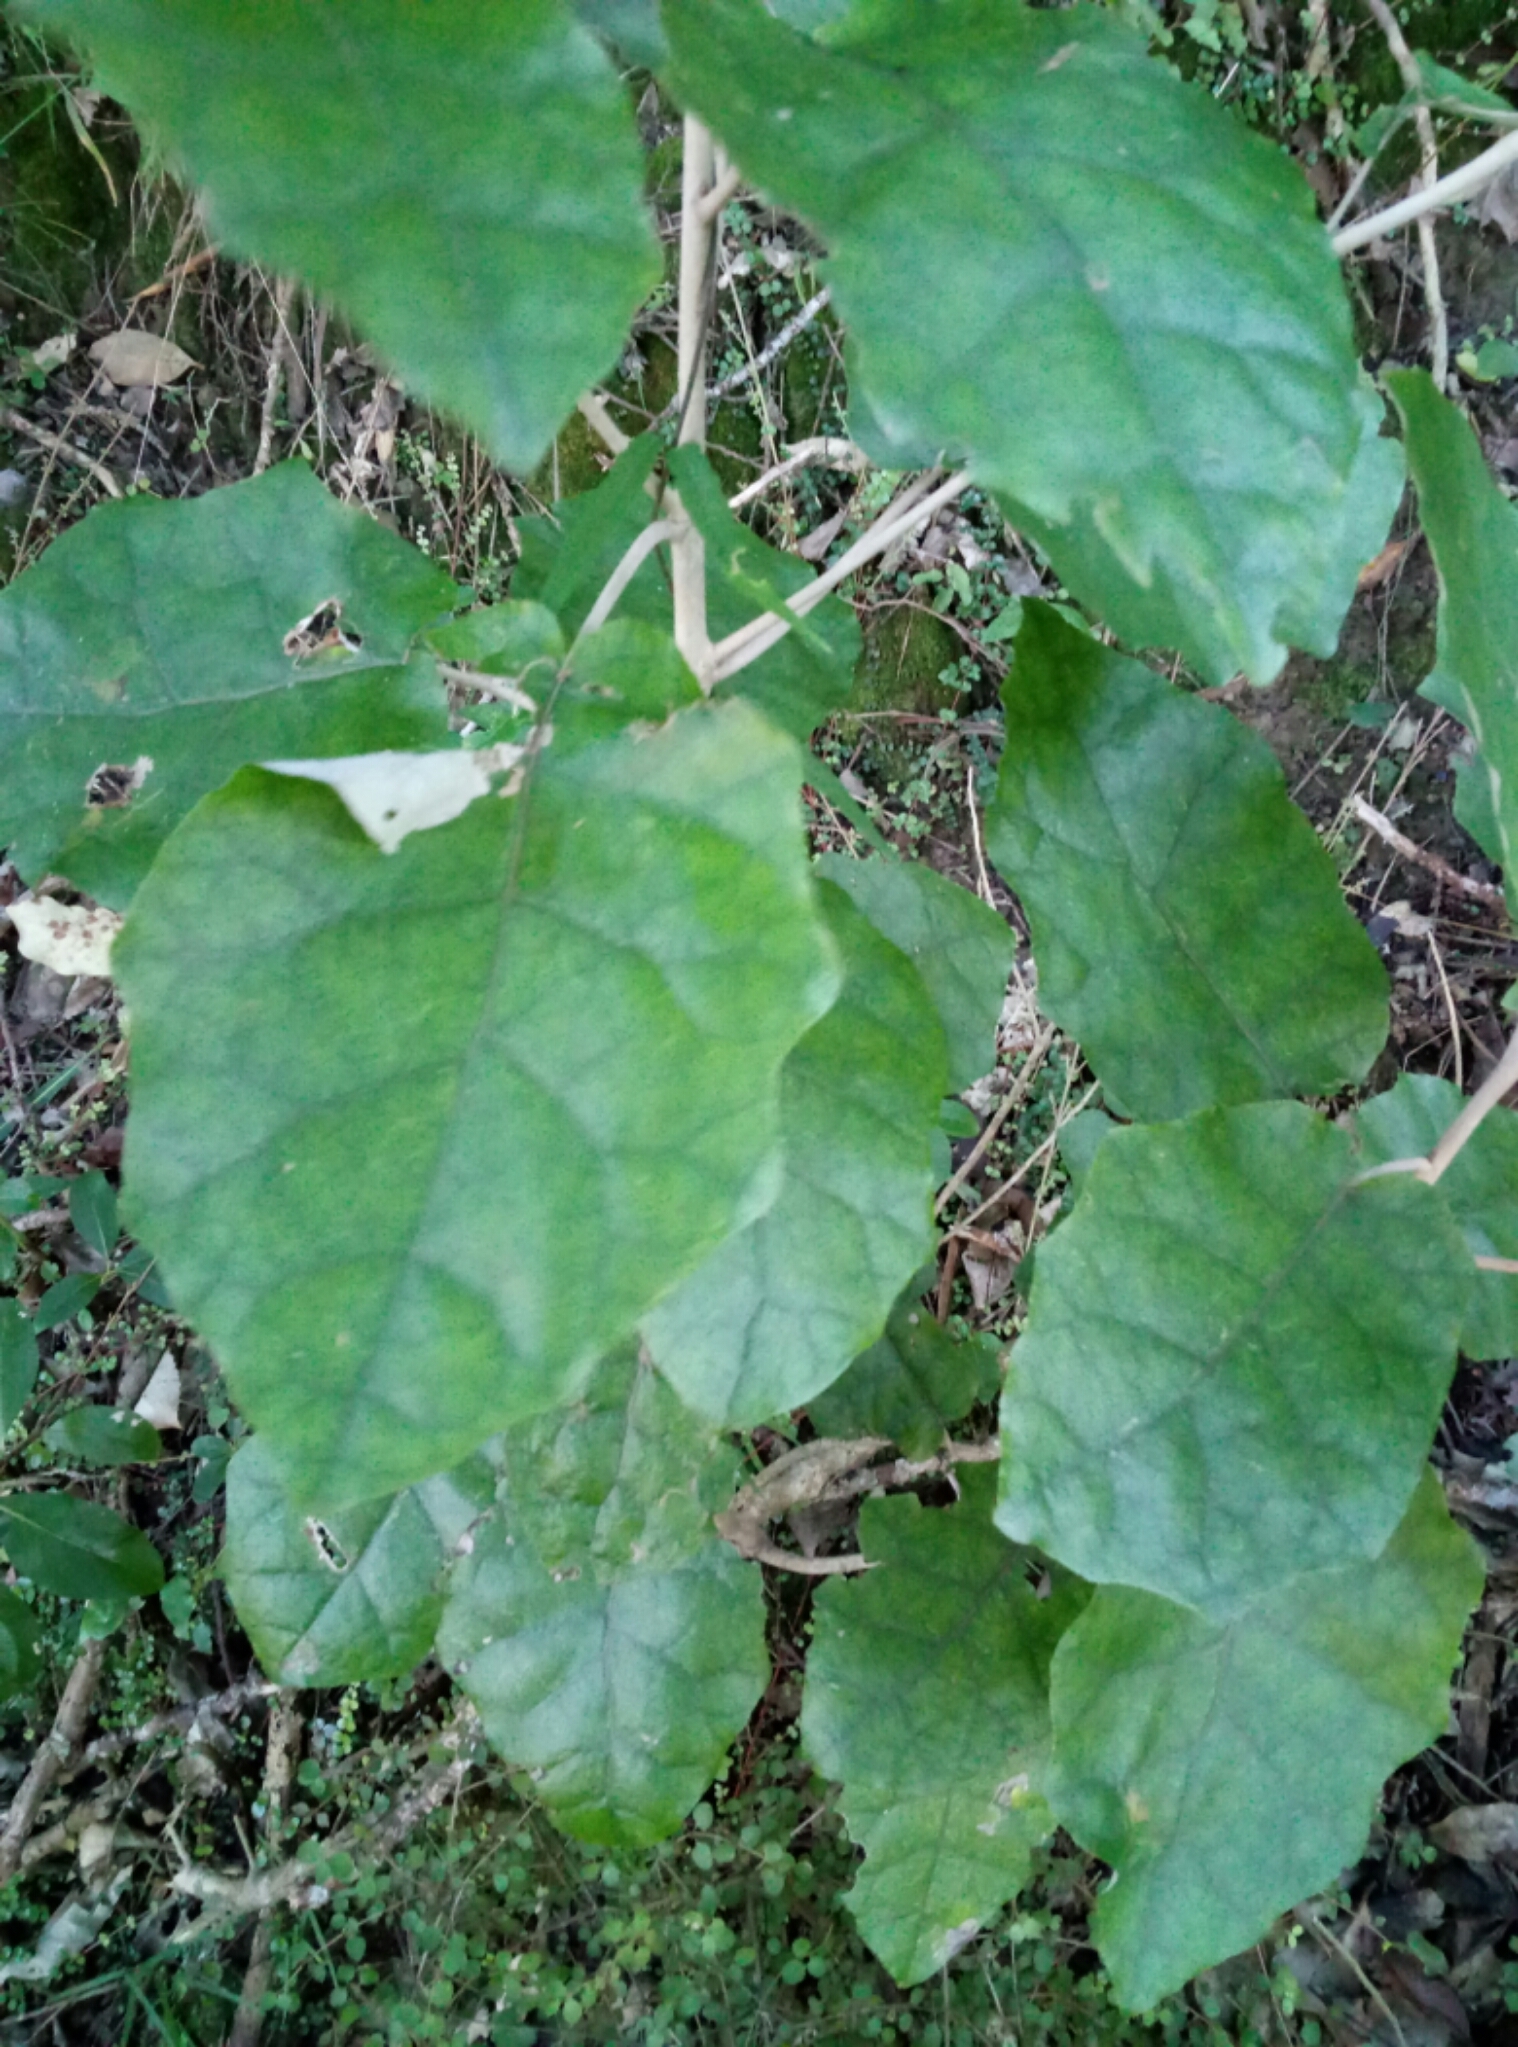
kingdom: Plantae
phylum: Tracheophyta
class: Magnoliopsida
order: Asterales
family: Asteraceae
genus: Brachyglottis
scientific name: Brachyglottis repanda
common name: Hedge ragwort
